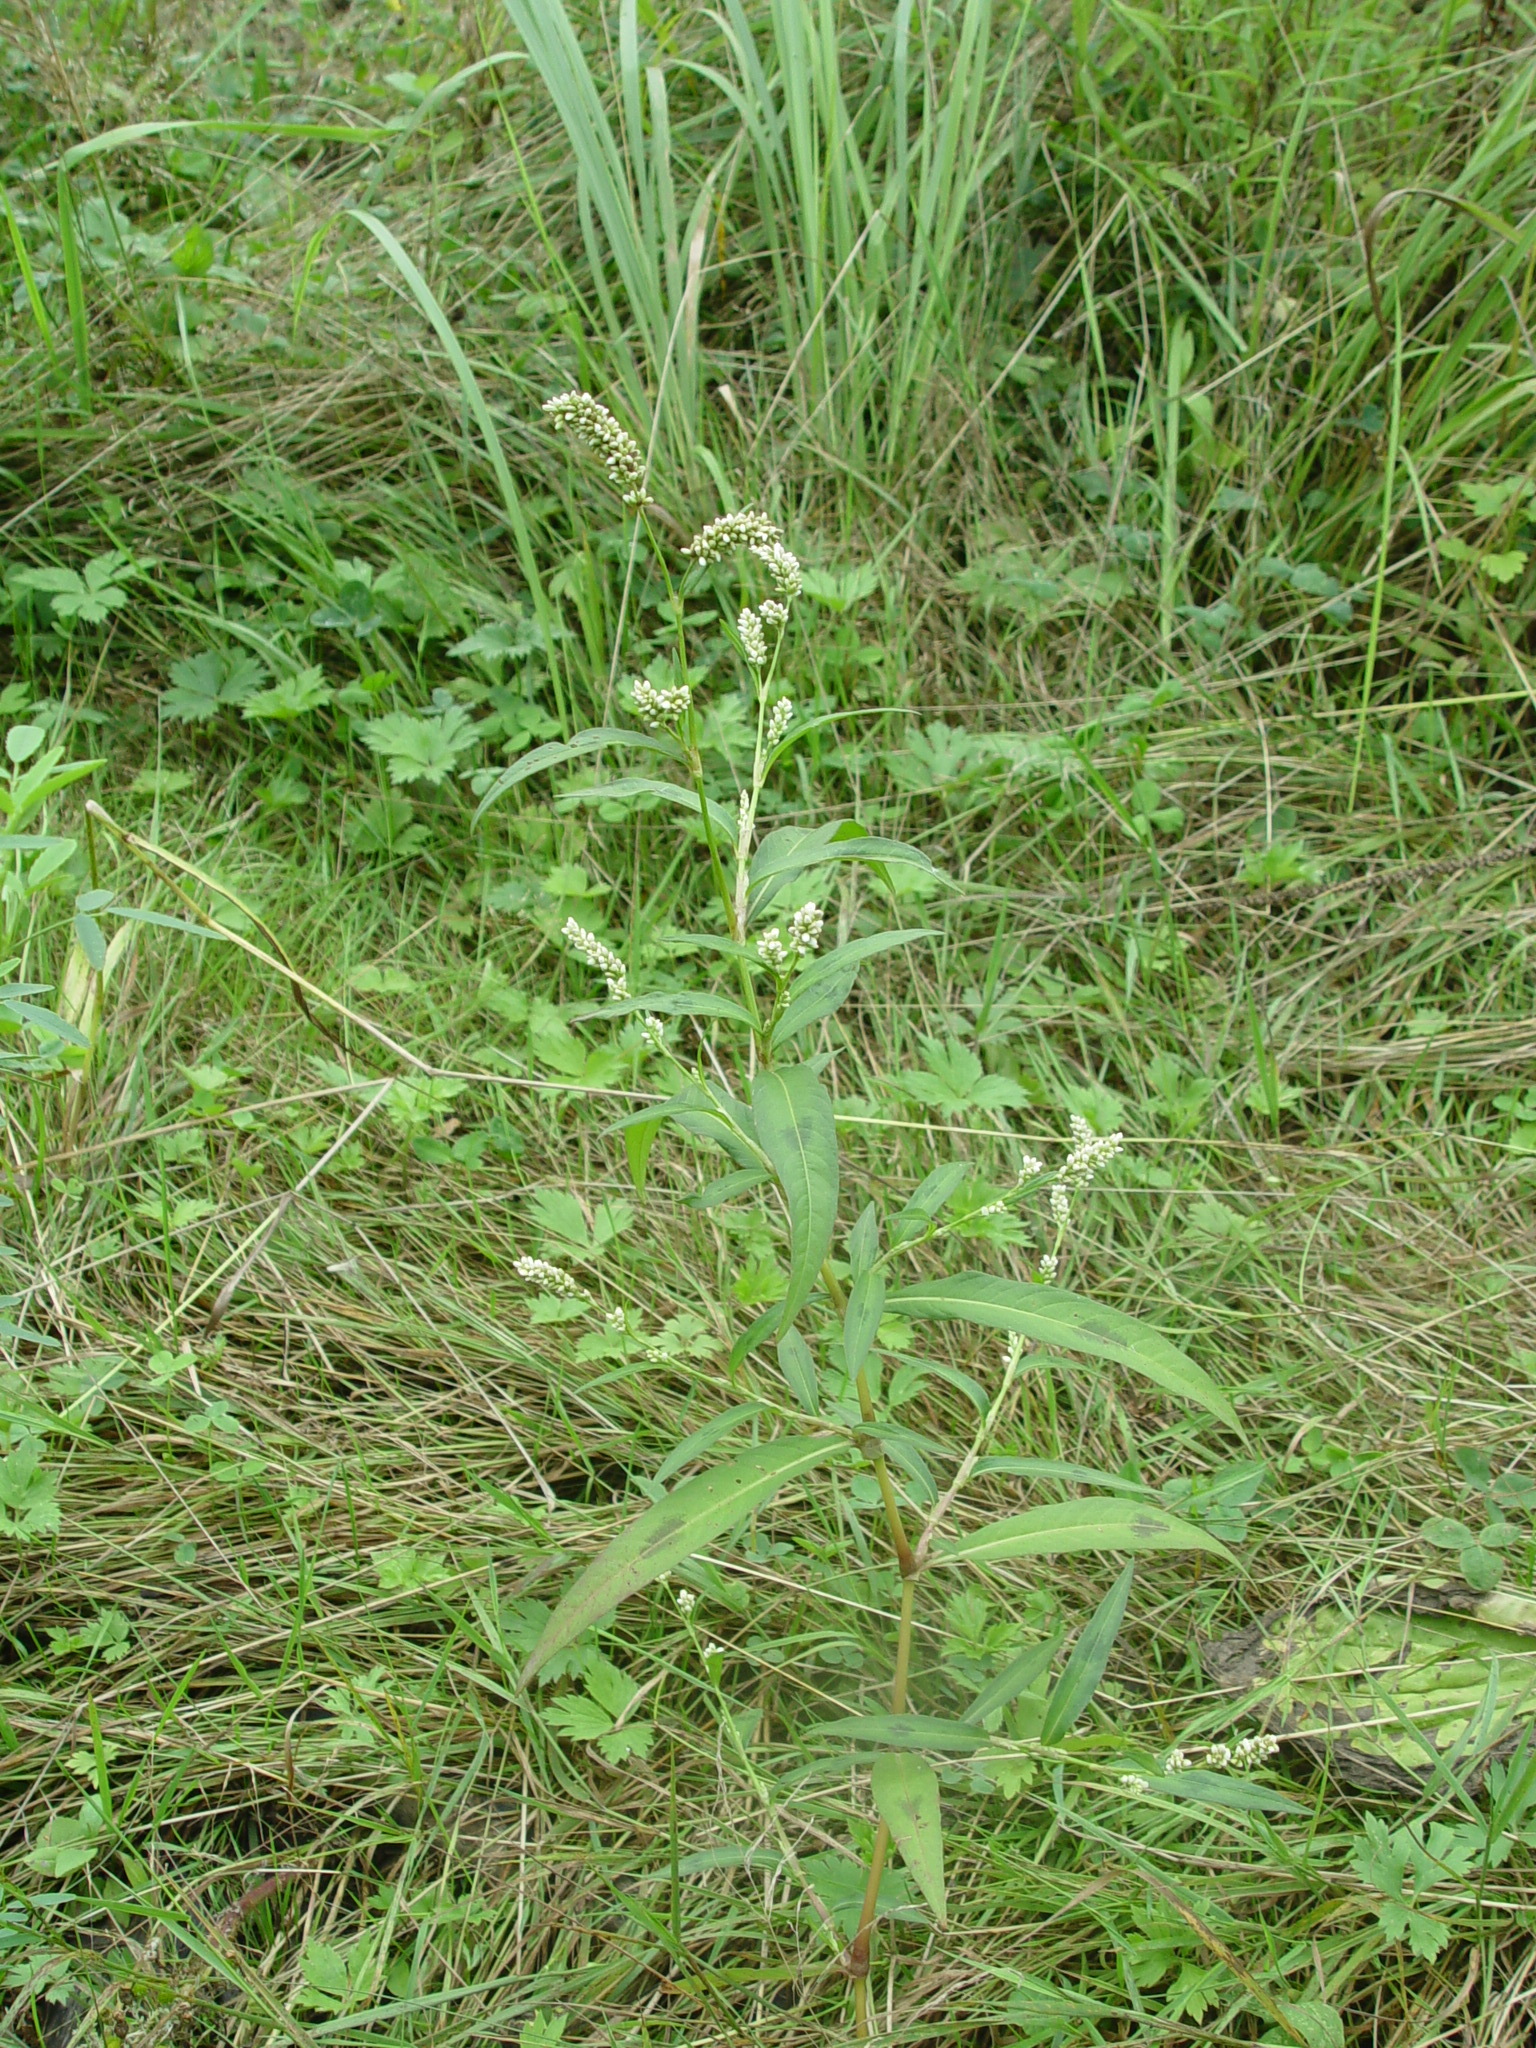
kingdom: Plantae
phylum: Tracheophyta
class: Magnoliopsida
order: Caryophyllales
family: Polygonaceae
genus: Persicaria
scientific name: Persicaria maculosa
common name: Redshank
